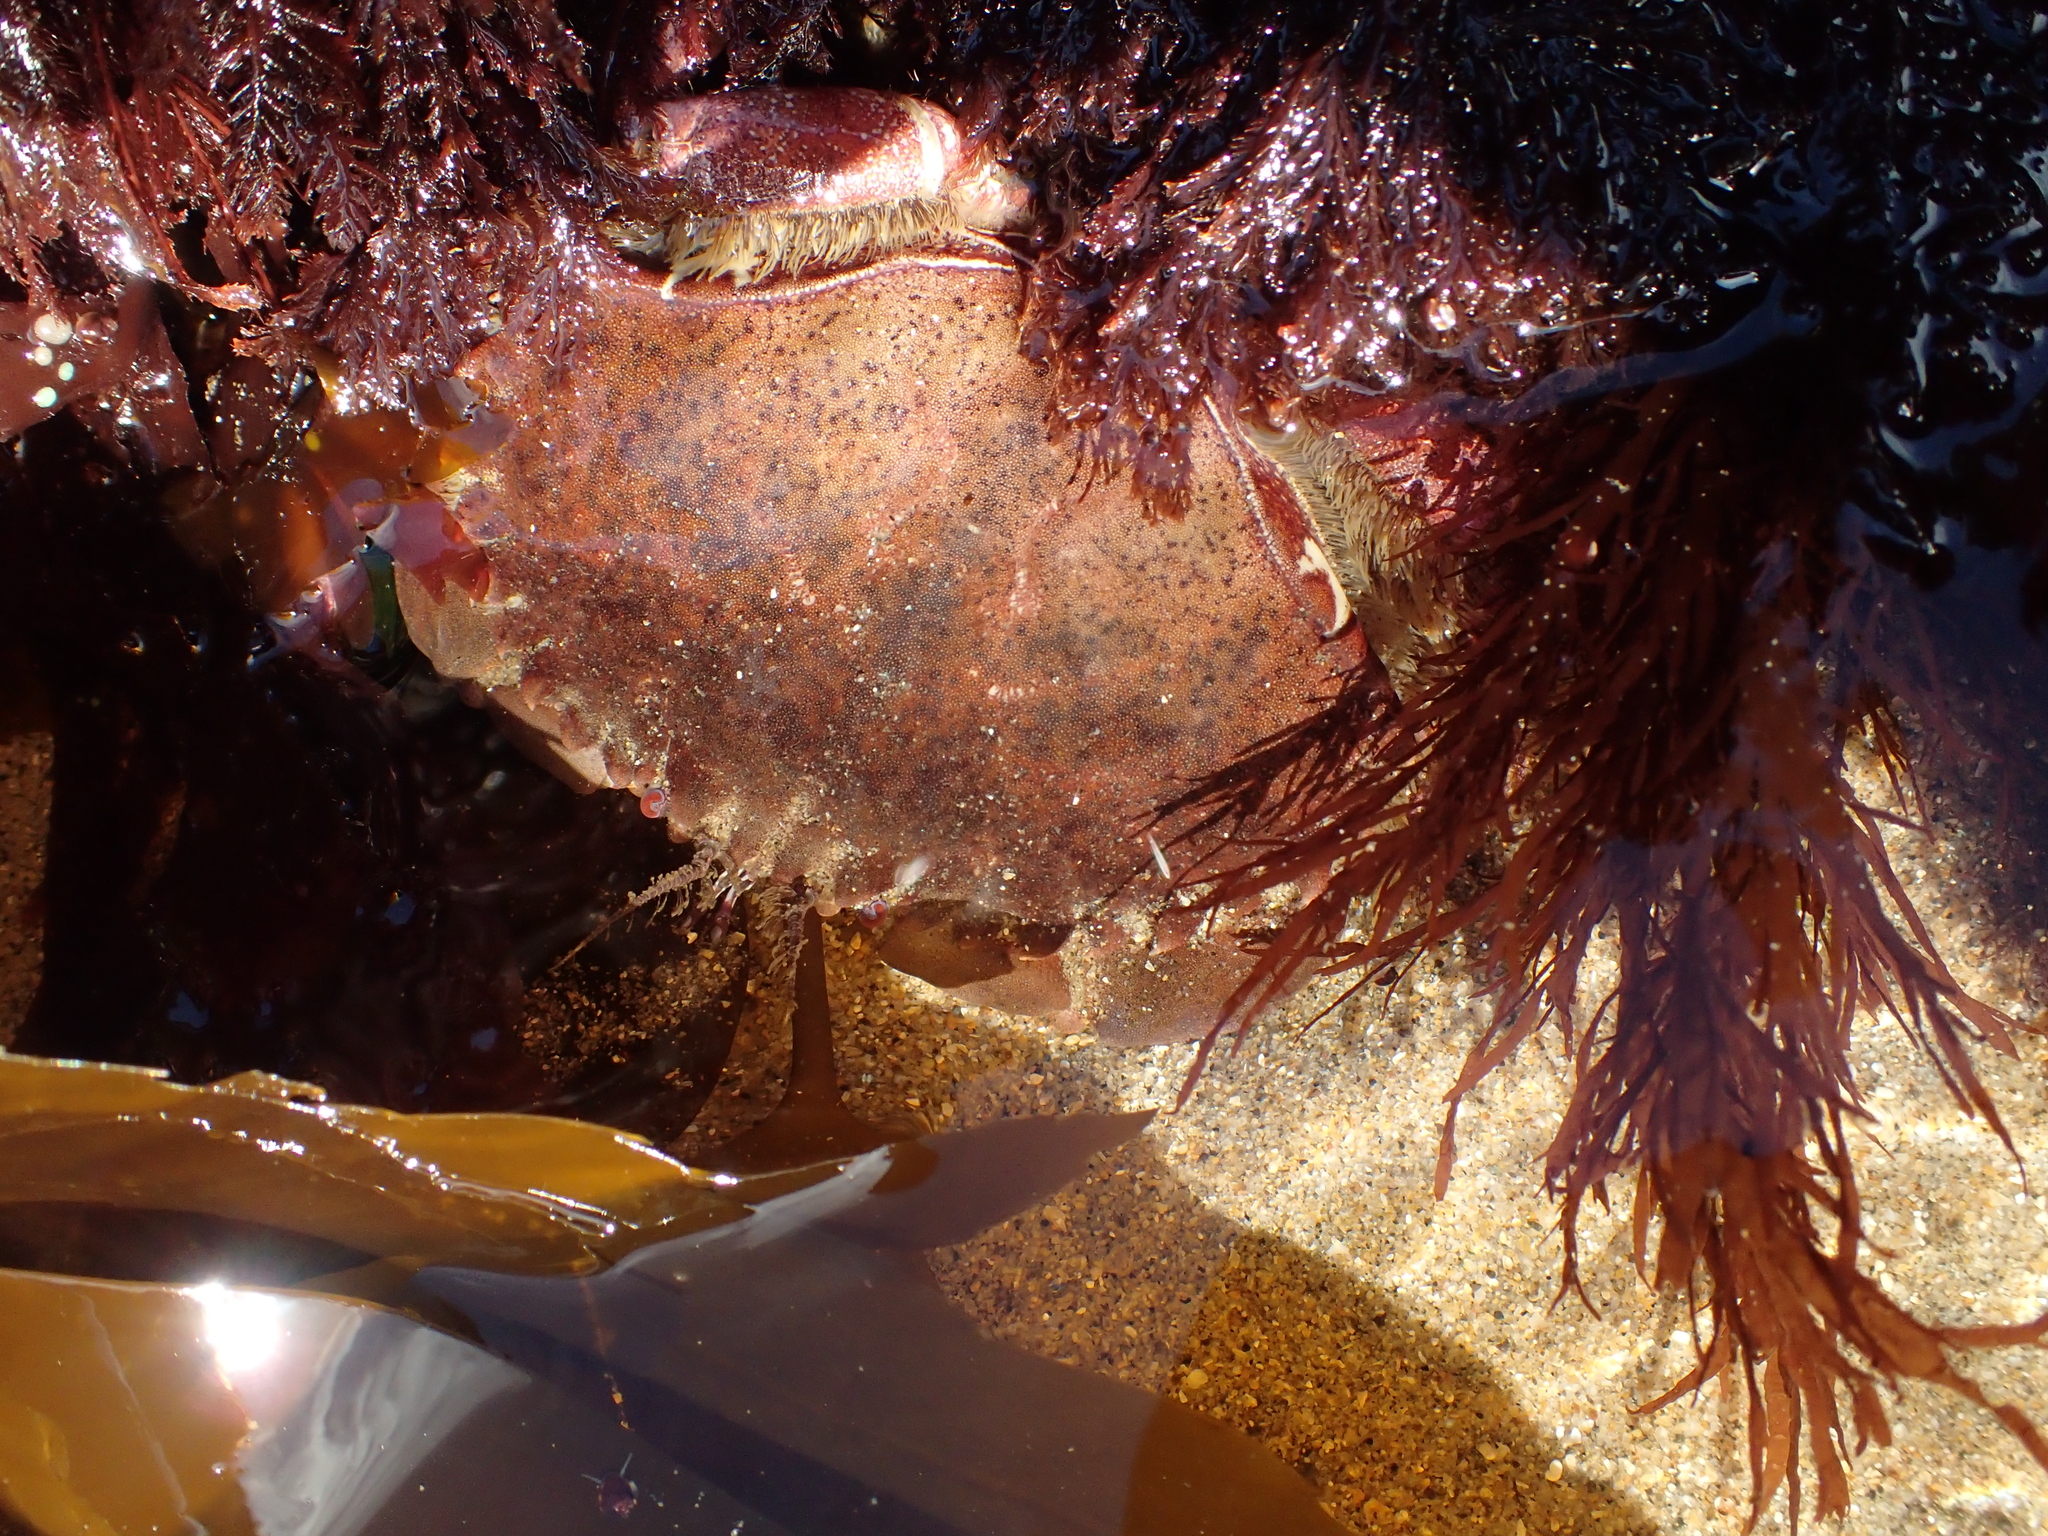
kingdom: Animalia
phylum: Arthropoda
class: Malacostraca
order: Decapoda
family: Cancridae
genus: Romaleon
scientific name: Romaleon antennarium
